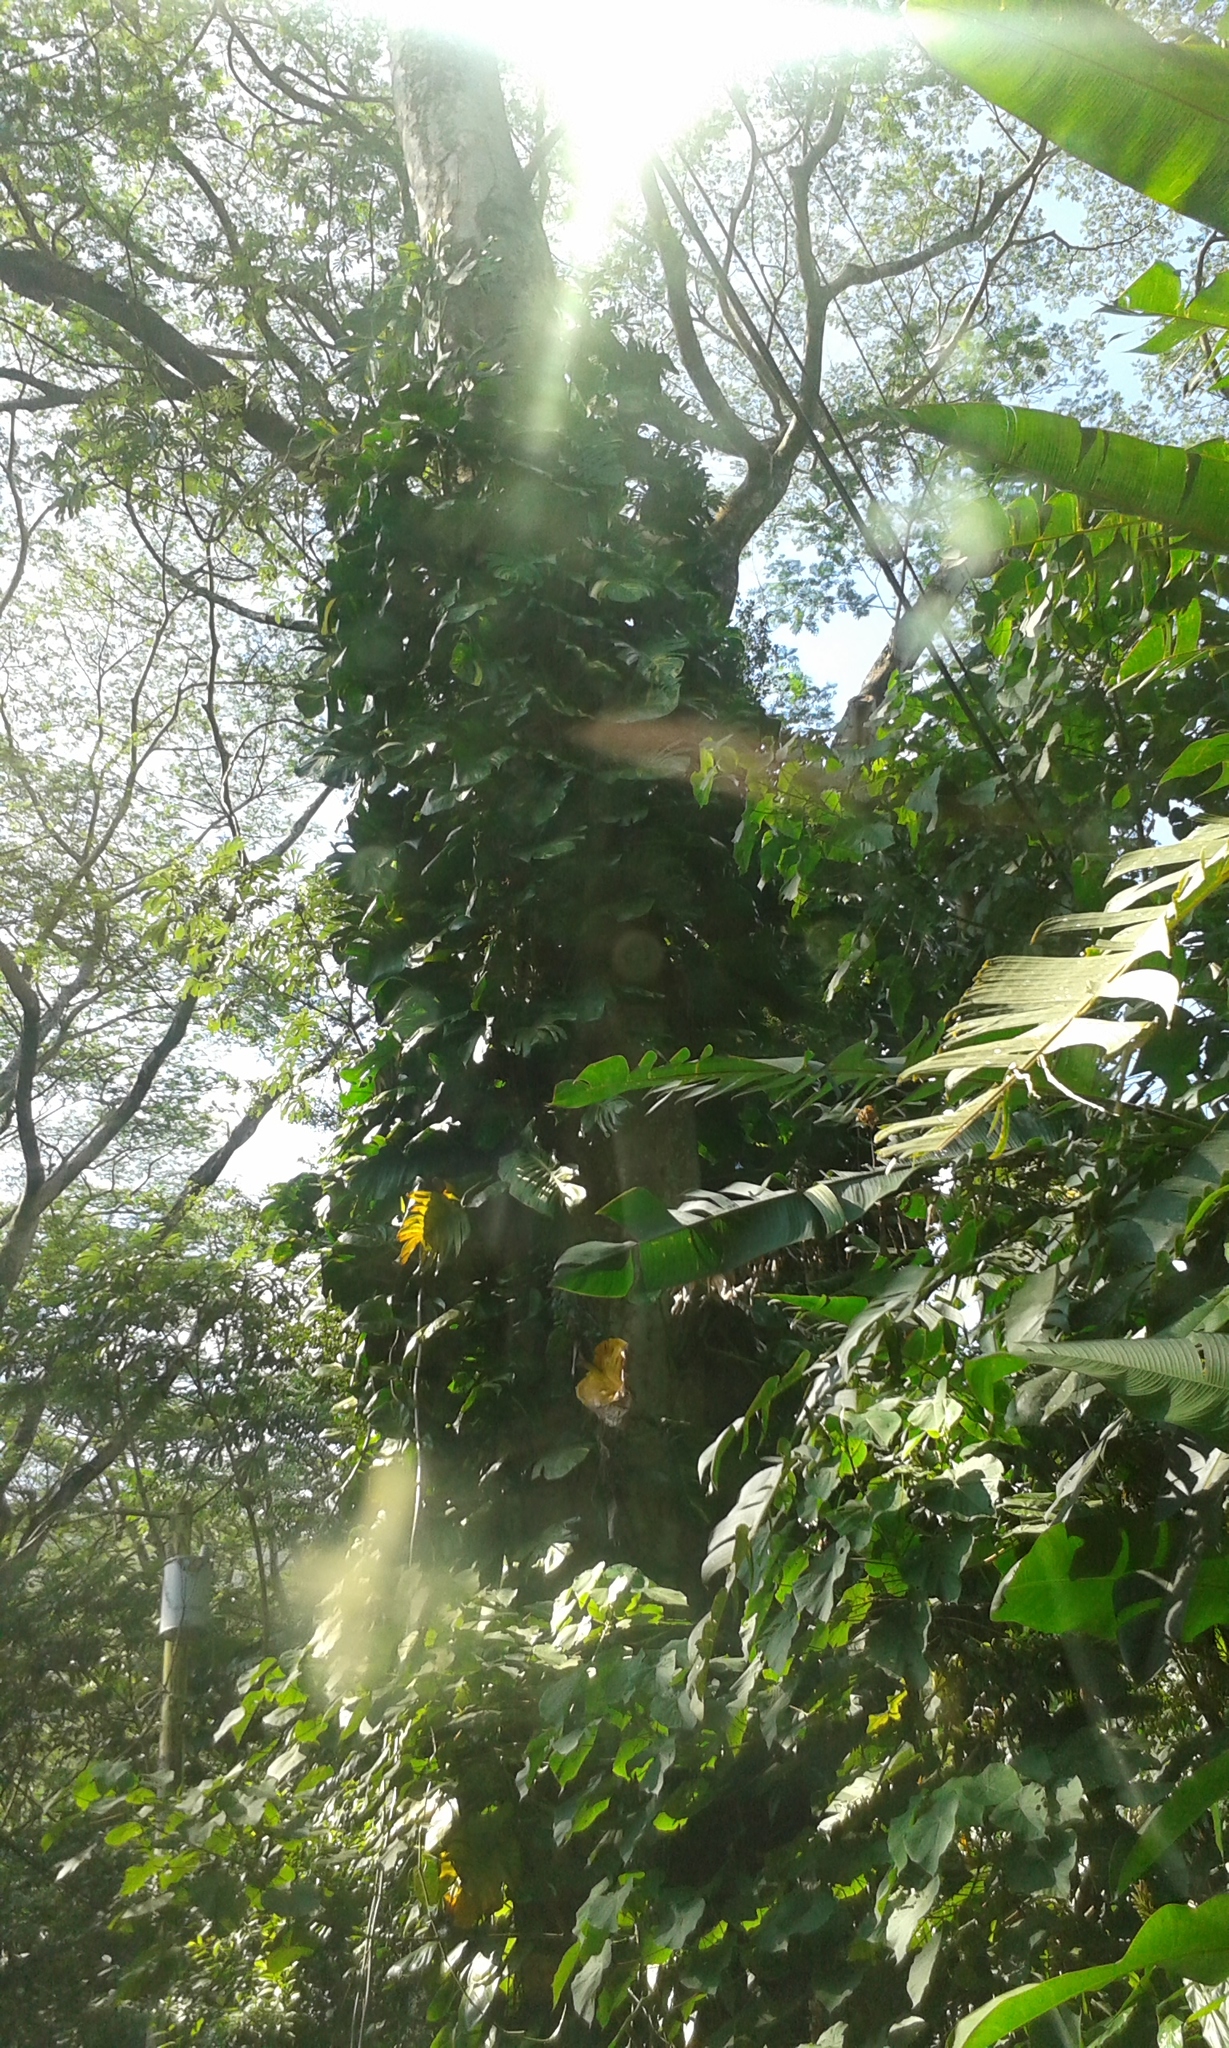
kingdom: Plantae
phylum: Tracheophyta
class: Liliopsida
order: Alismatales
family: Araceae
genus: Epipremnum
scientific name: Epipremnum aureum
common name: Golden hunter's-robe
